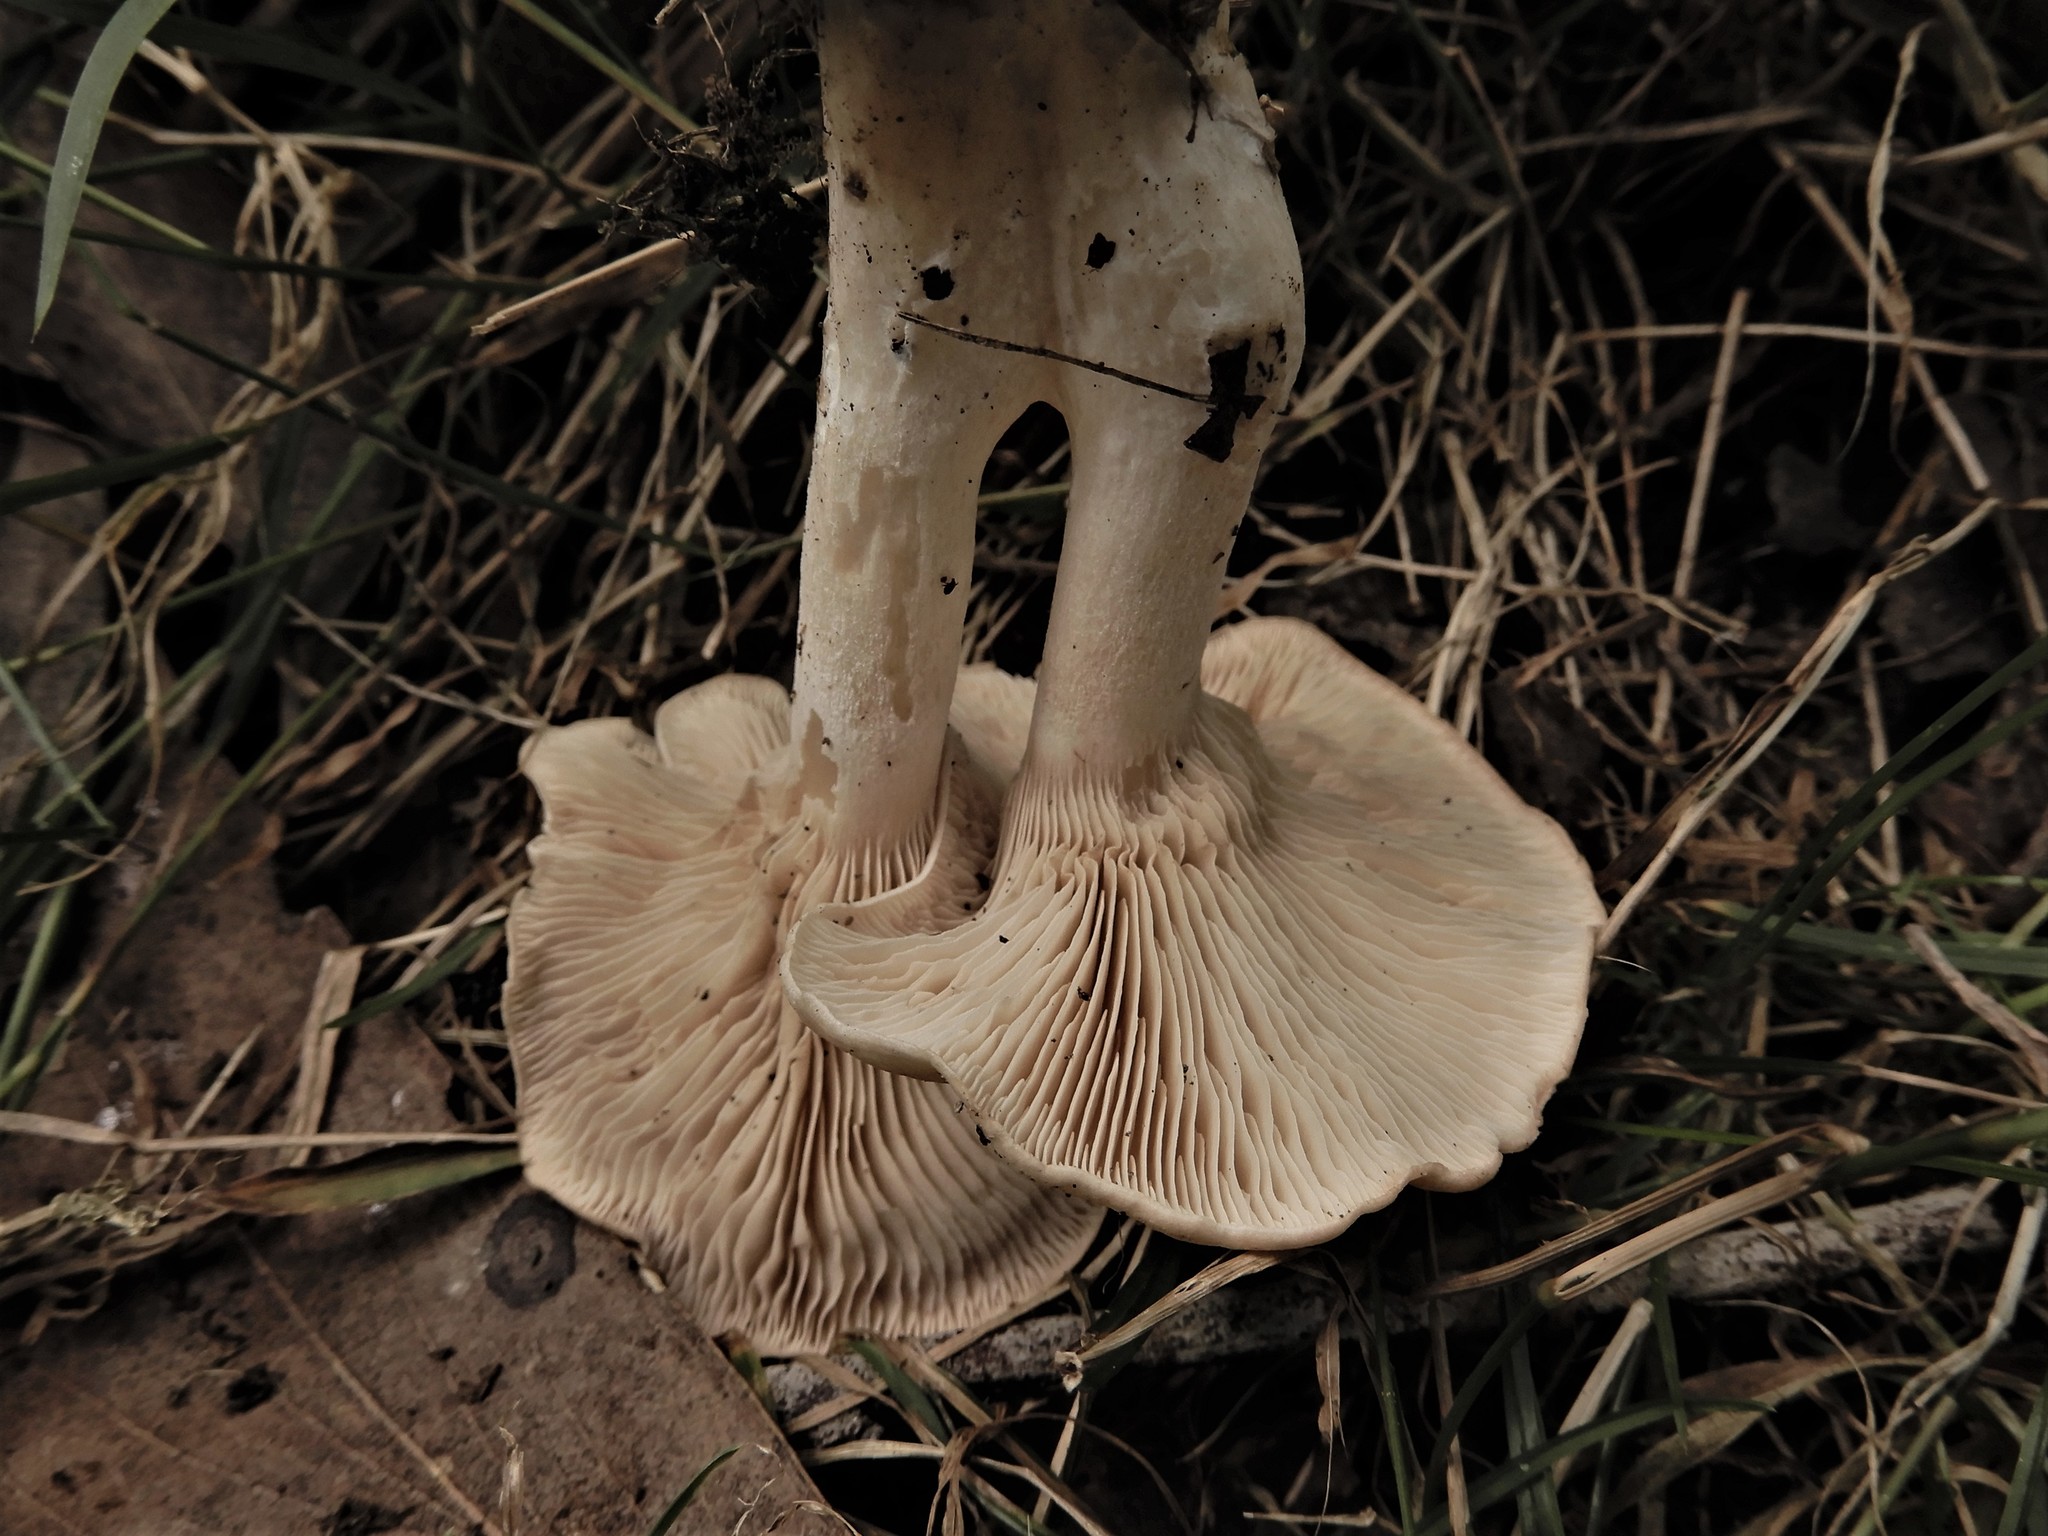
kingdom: Fungi
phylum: Basidiomycota
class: Agaricomycetes
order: Agaricales
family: Tricholomataceae
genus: Lepista
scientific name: Lepista luscina
